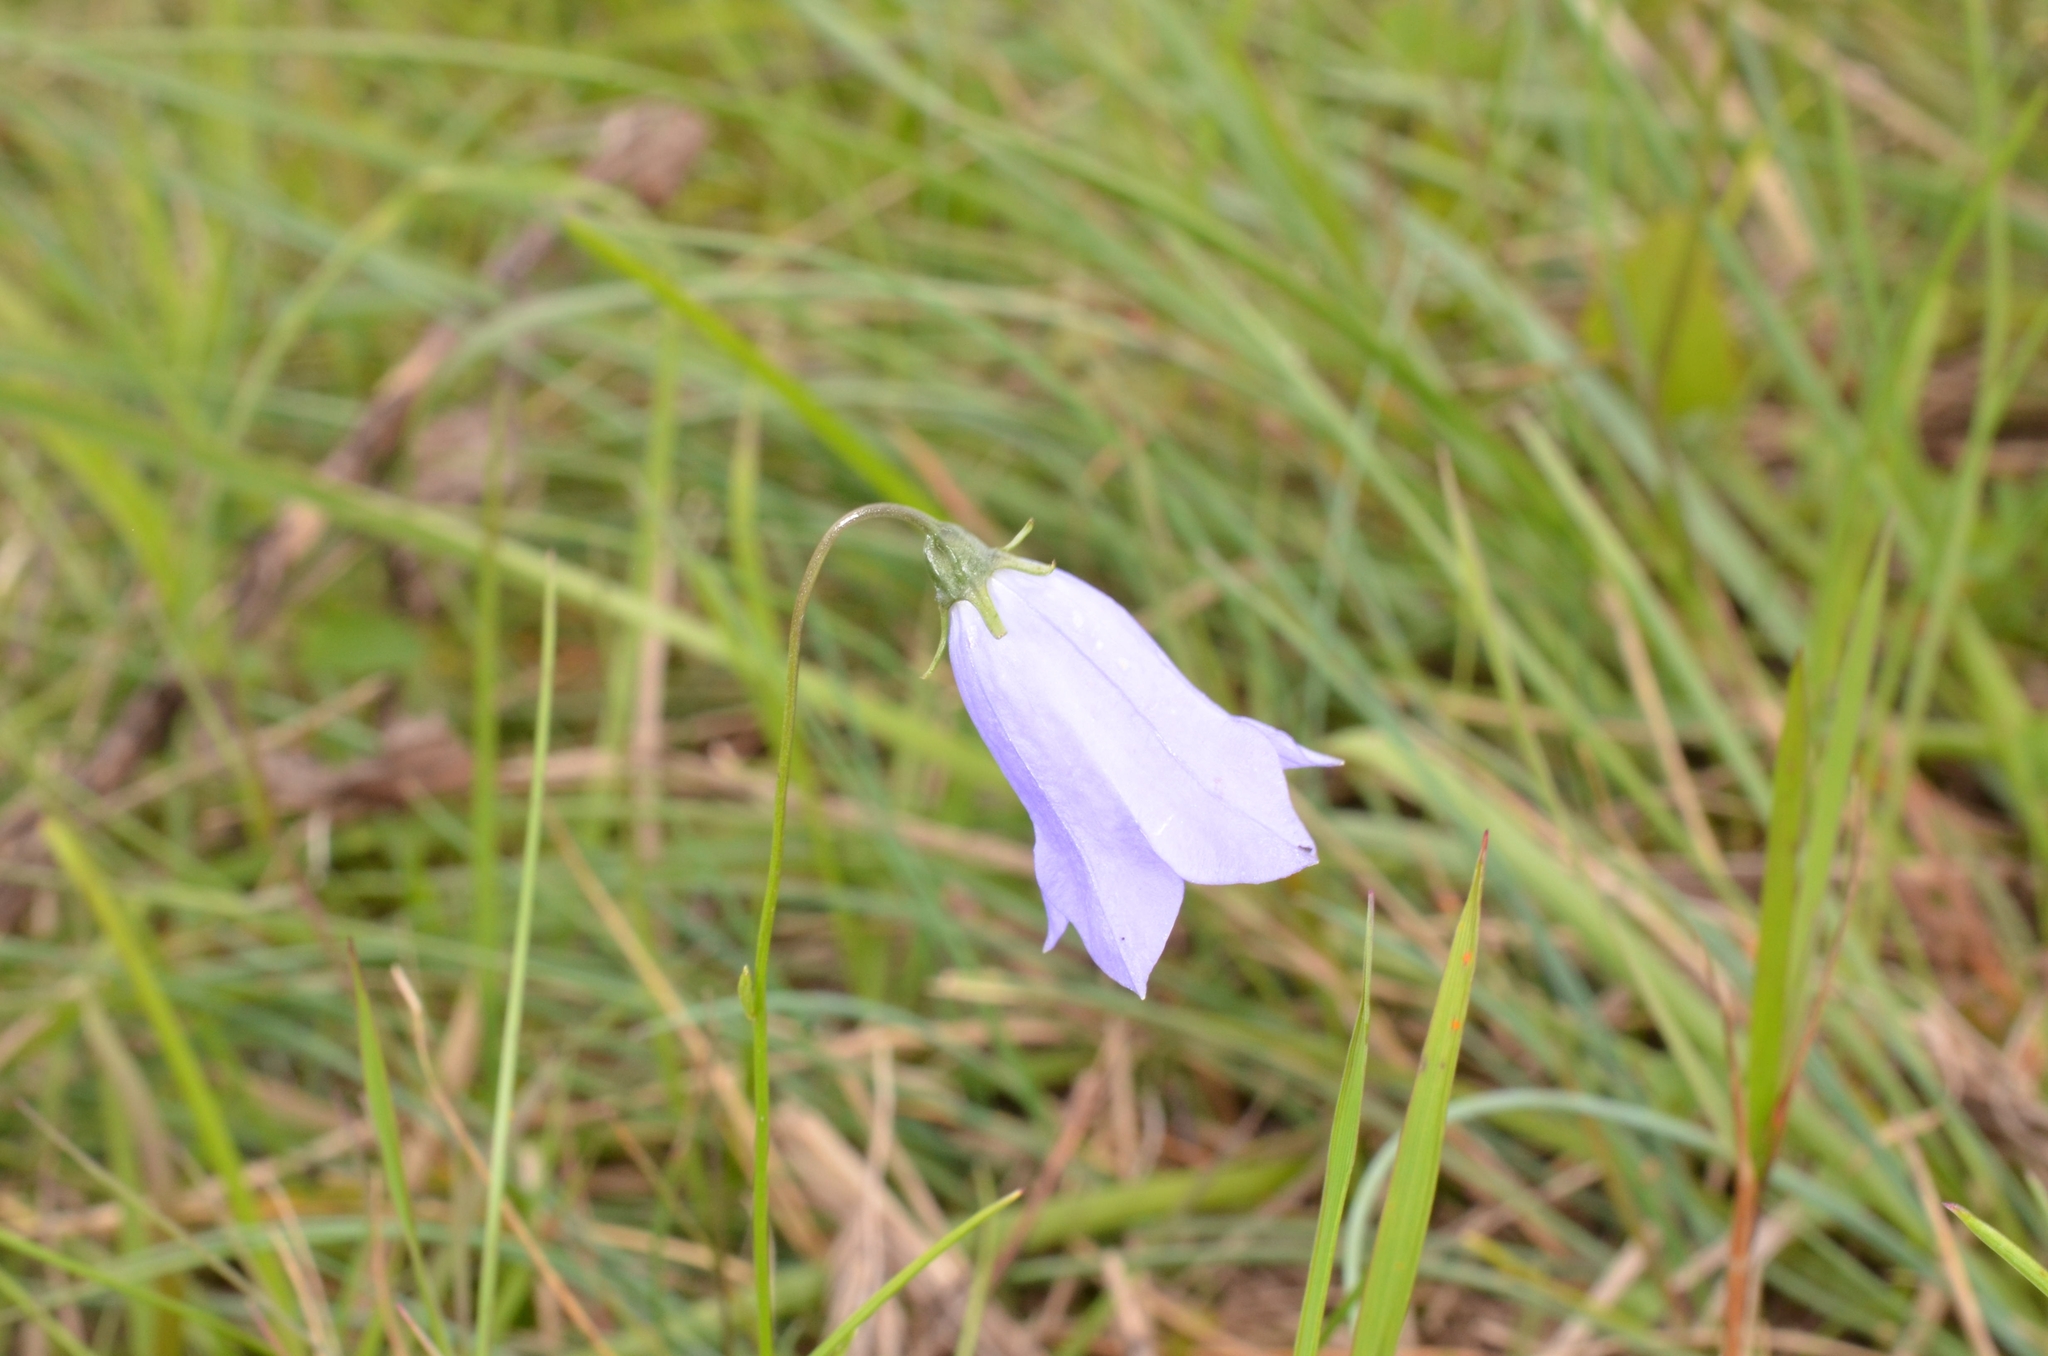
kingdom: Plantae
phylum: Tracheophyta
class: Magnoliopsida
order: Asterales
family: Campanulaceae
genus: Campanula
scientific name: Campanula rotundifolia
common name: Harebell
